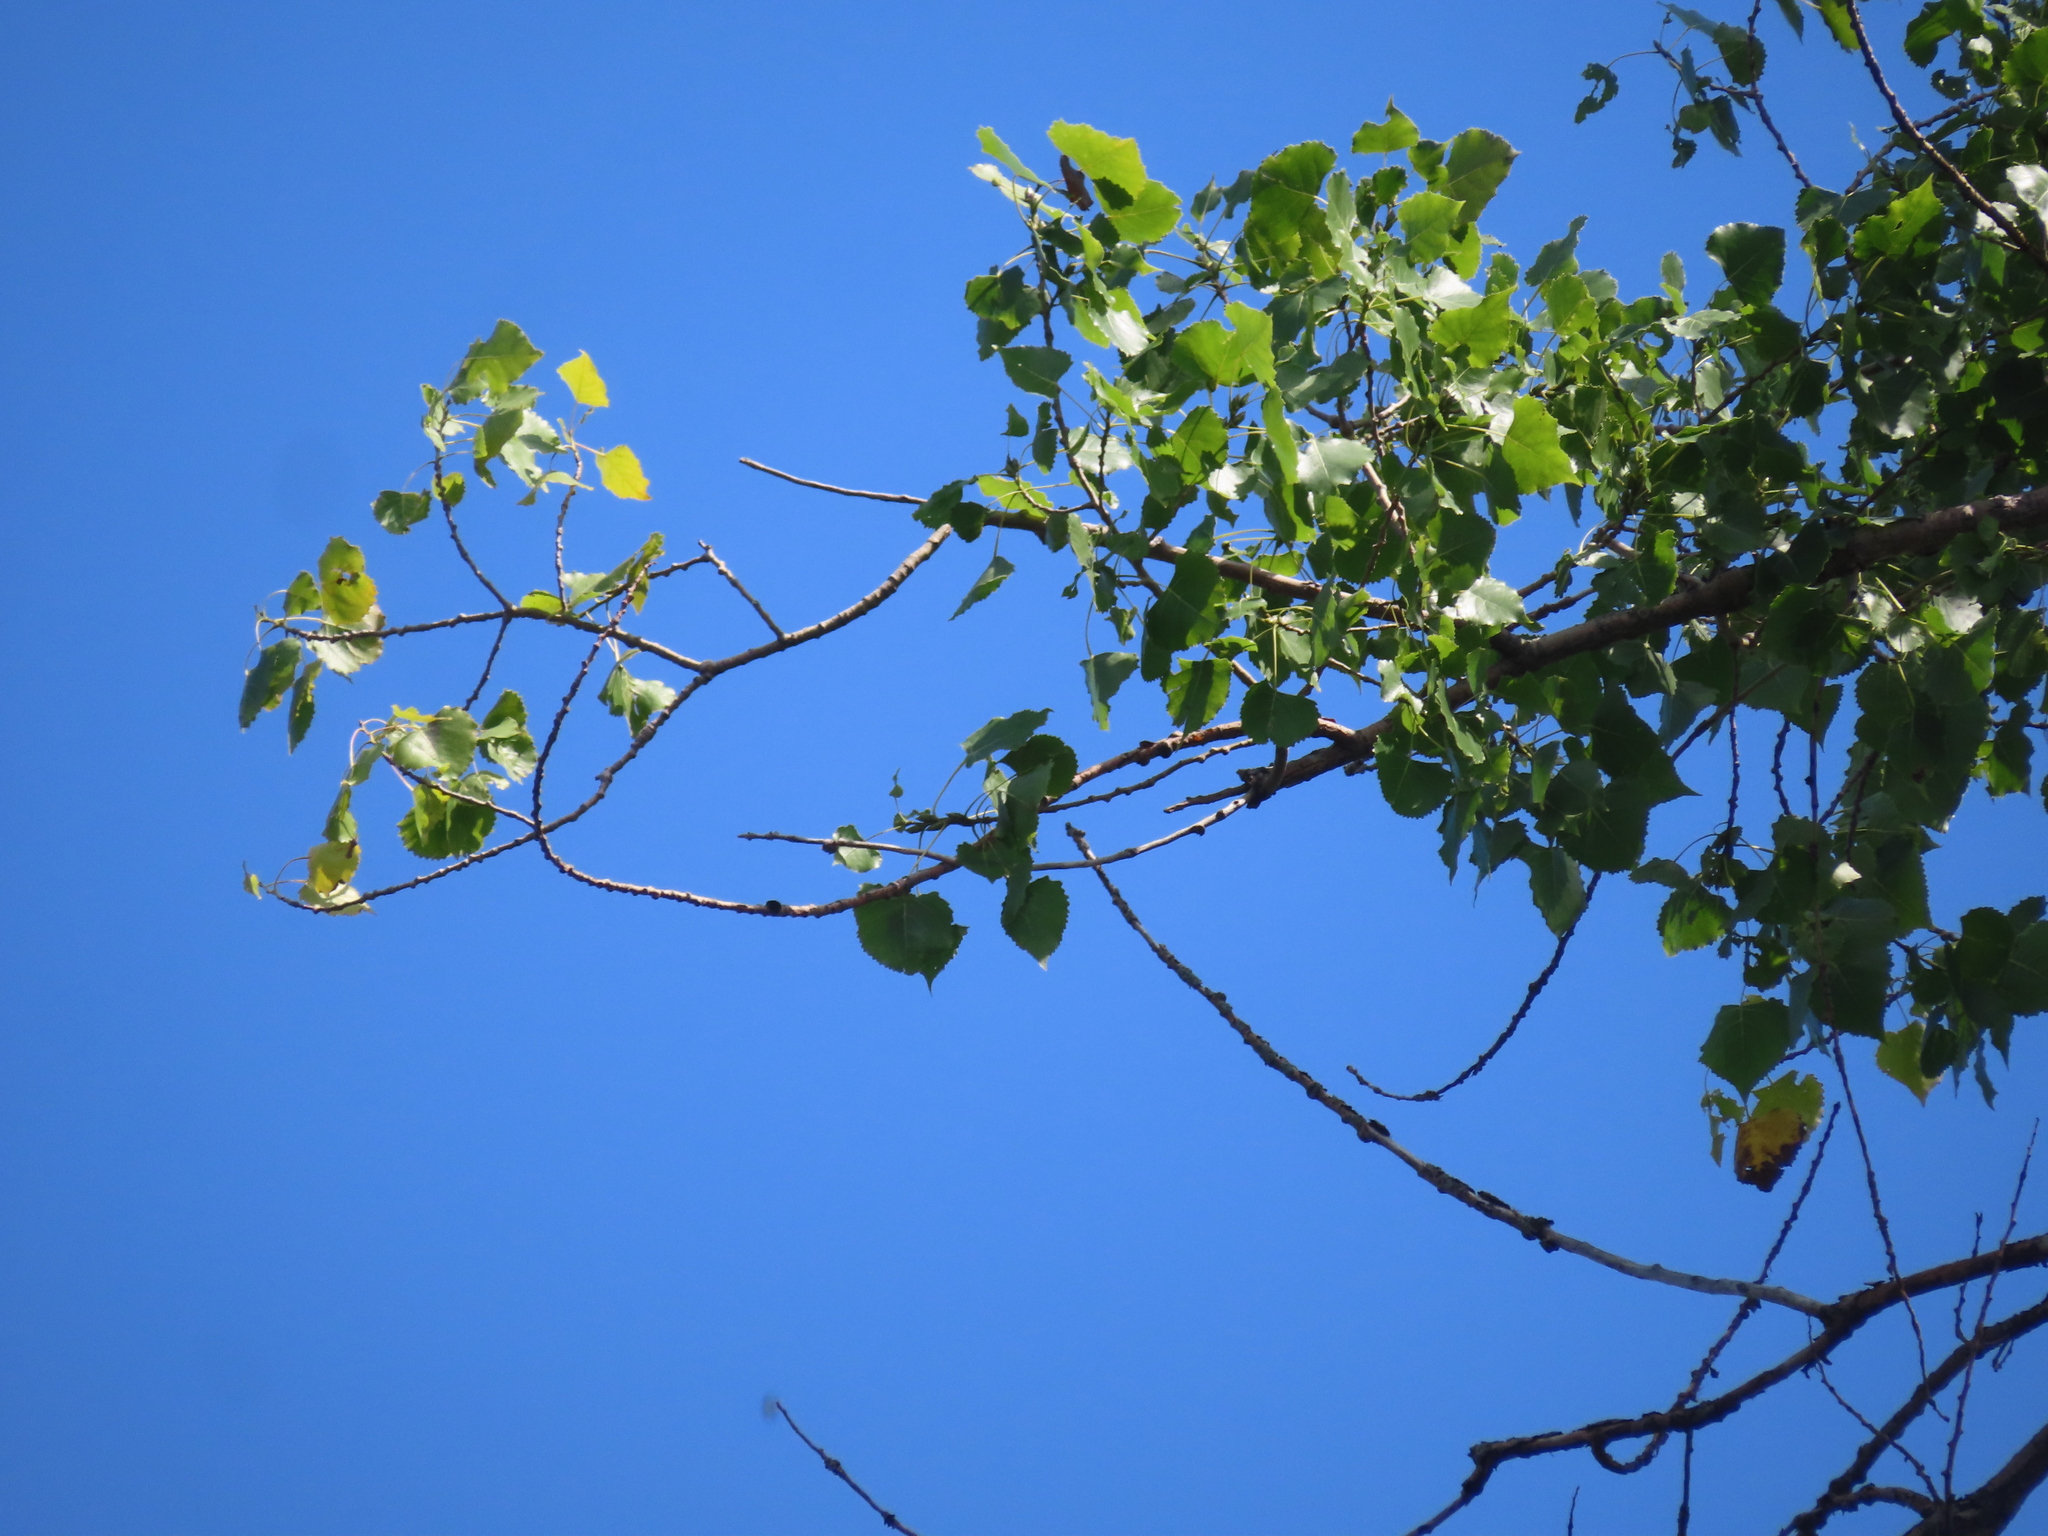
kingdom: Plantae
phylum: Tracheophyta
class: Magnoliopsida
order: Malpighiales
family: Salicaceae
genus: Populus
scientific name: Populus deltoides
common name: Eastern cottonwood
